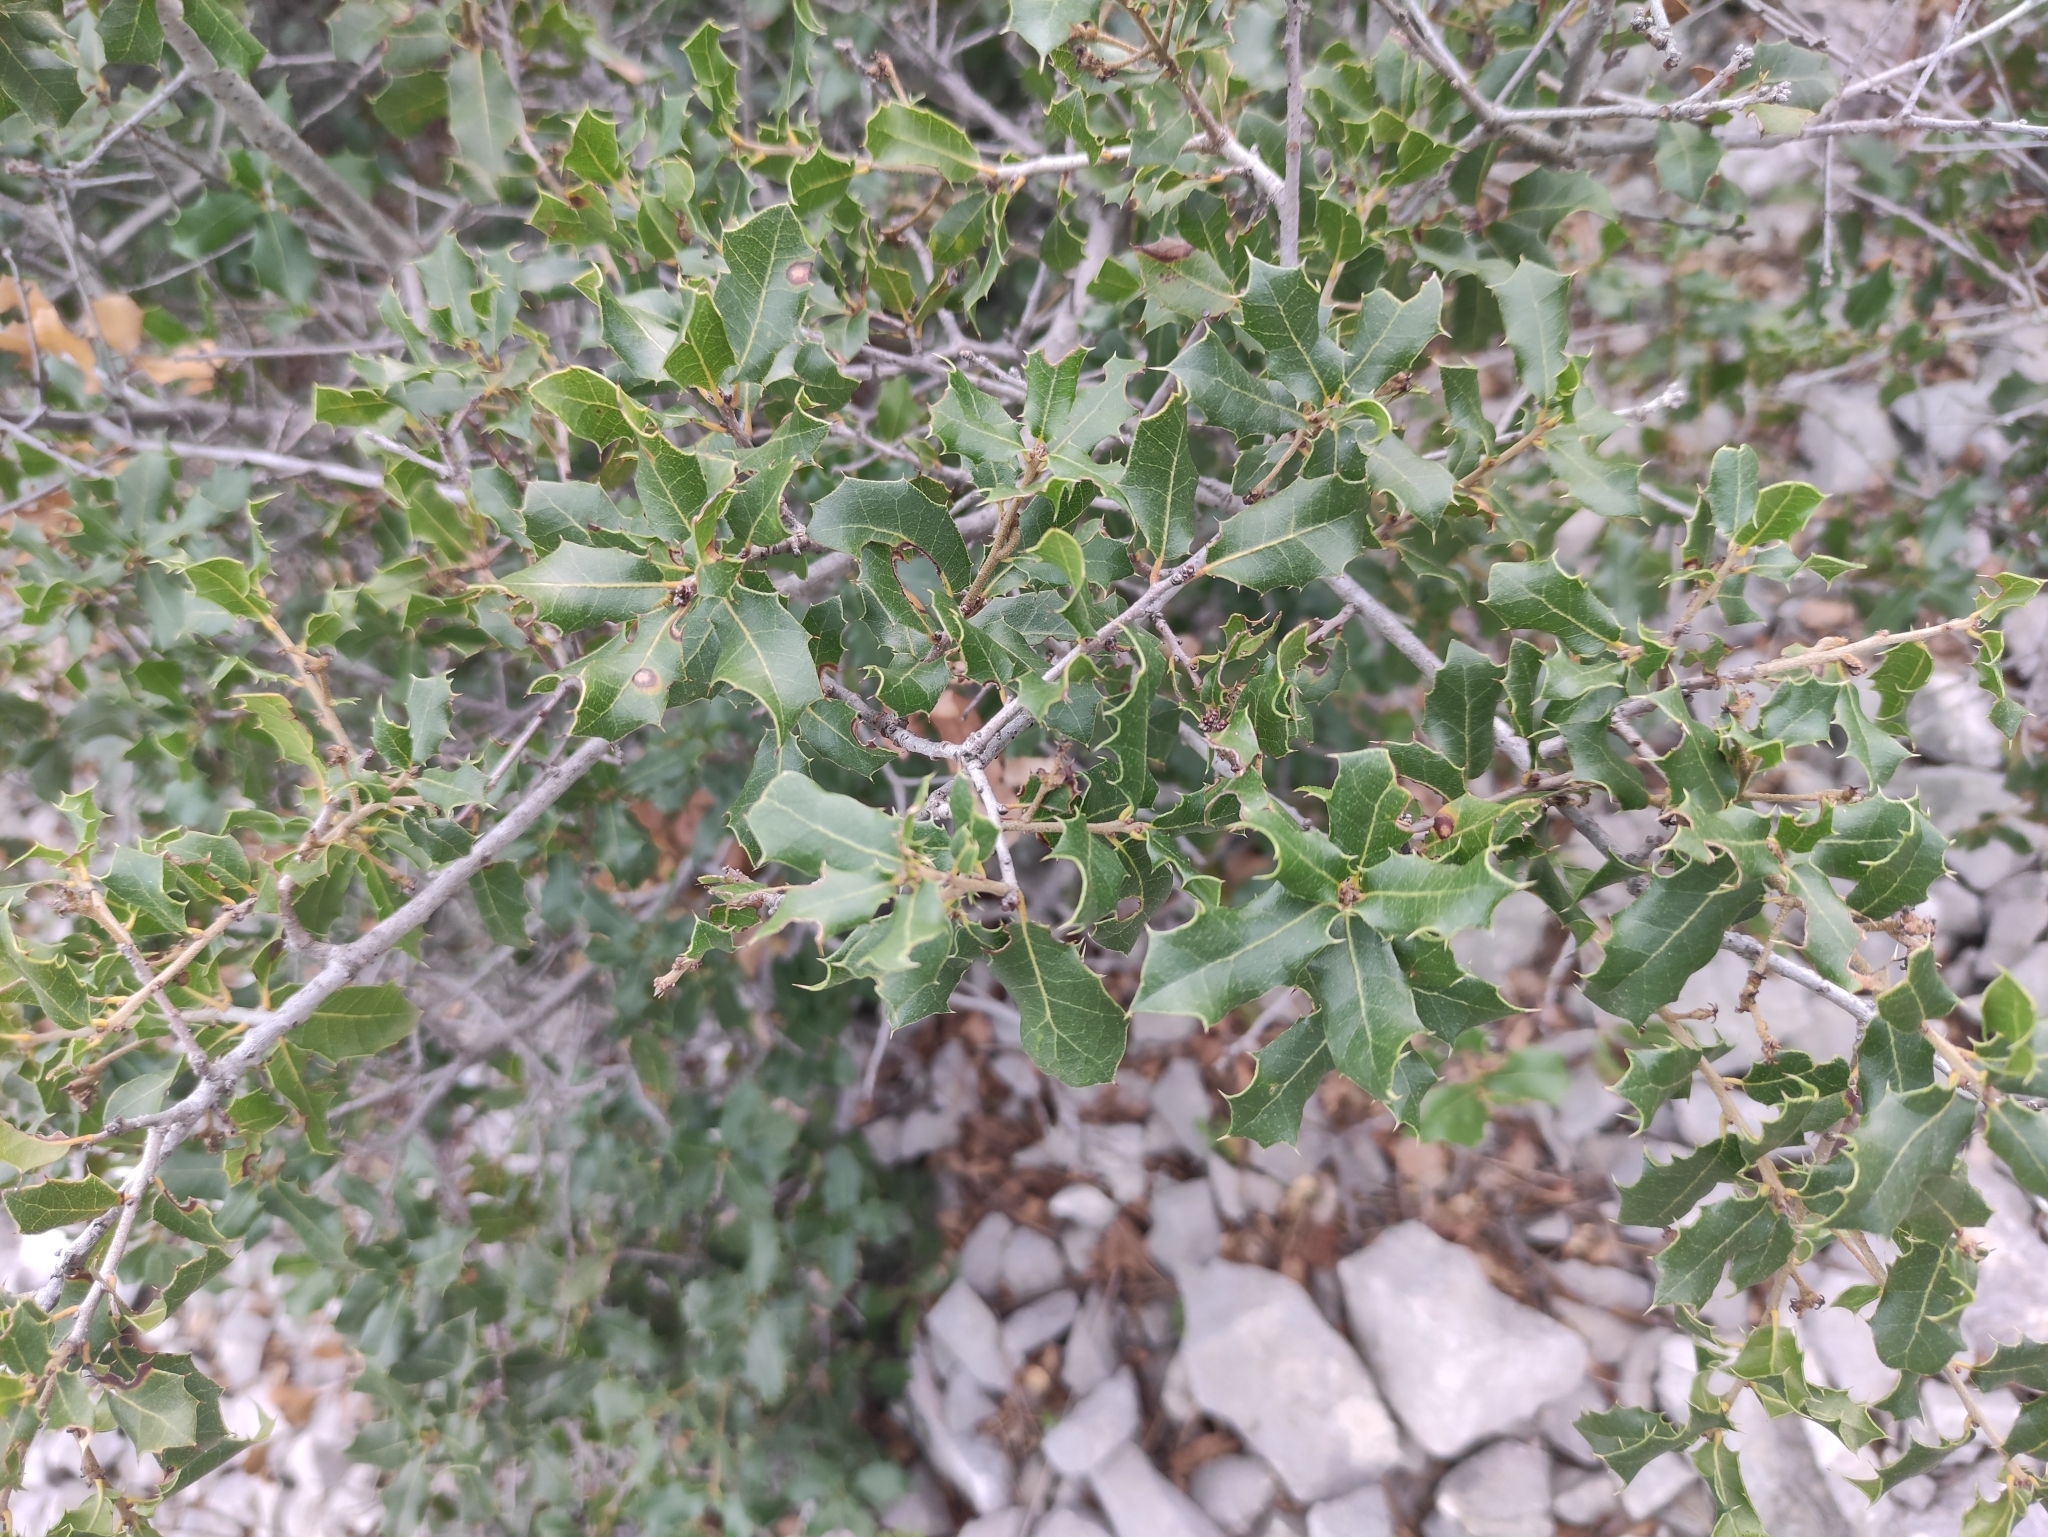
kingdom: Plantae
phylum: Tracheophyta
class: Magnoliopsida
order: Fagales
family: Fagaceae
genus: Quercus
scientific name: Quercus coccifera
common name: Kermes oak
